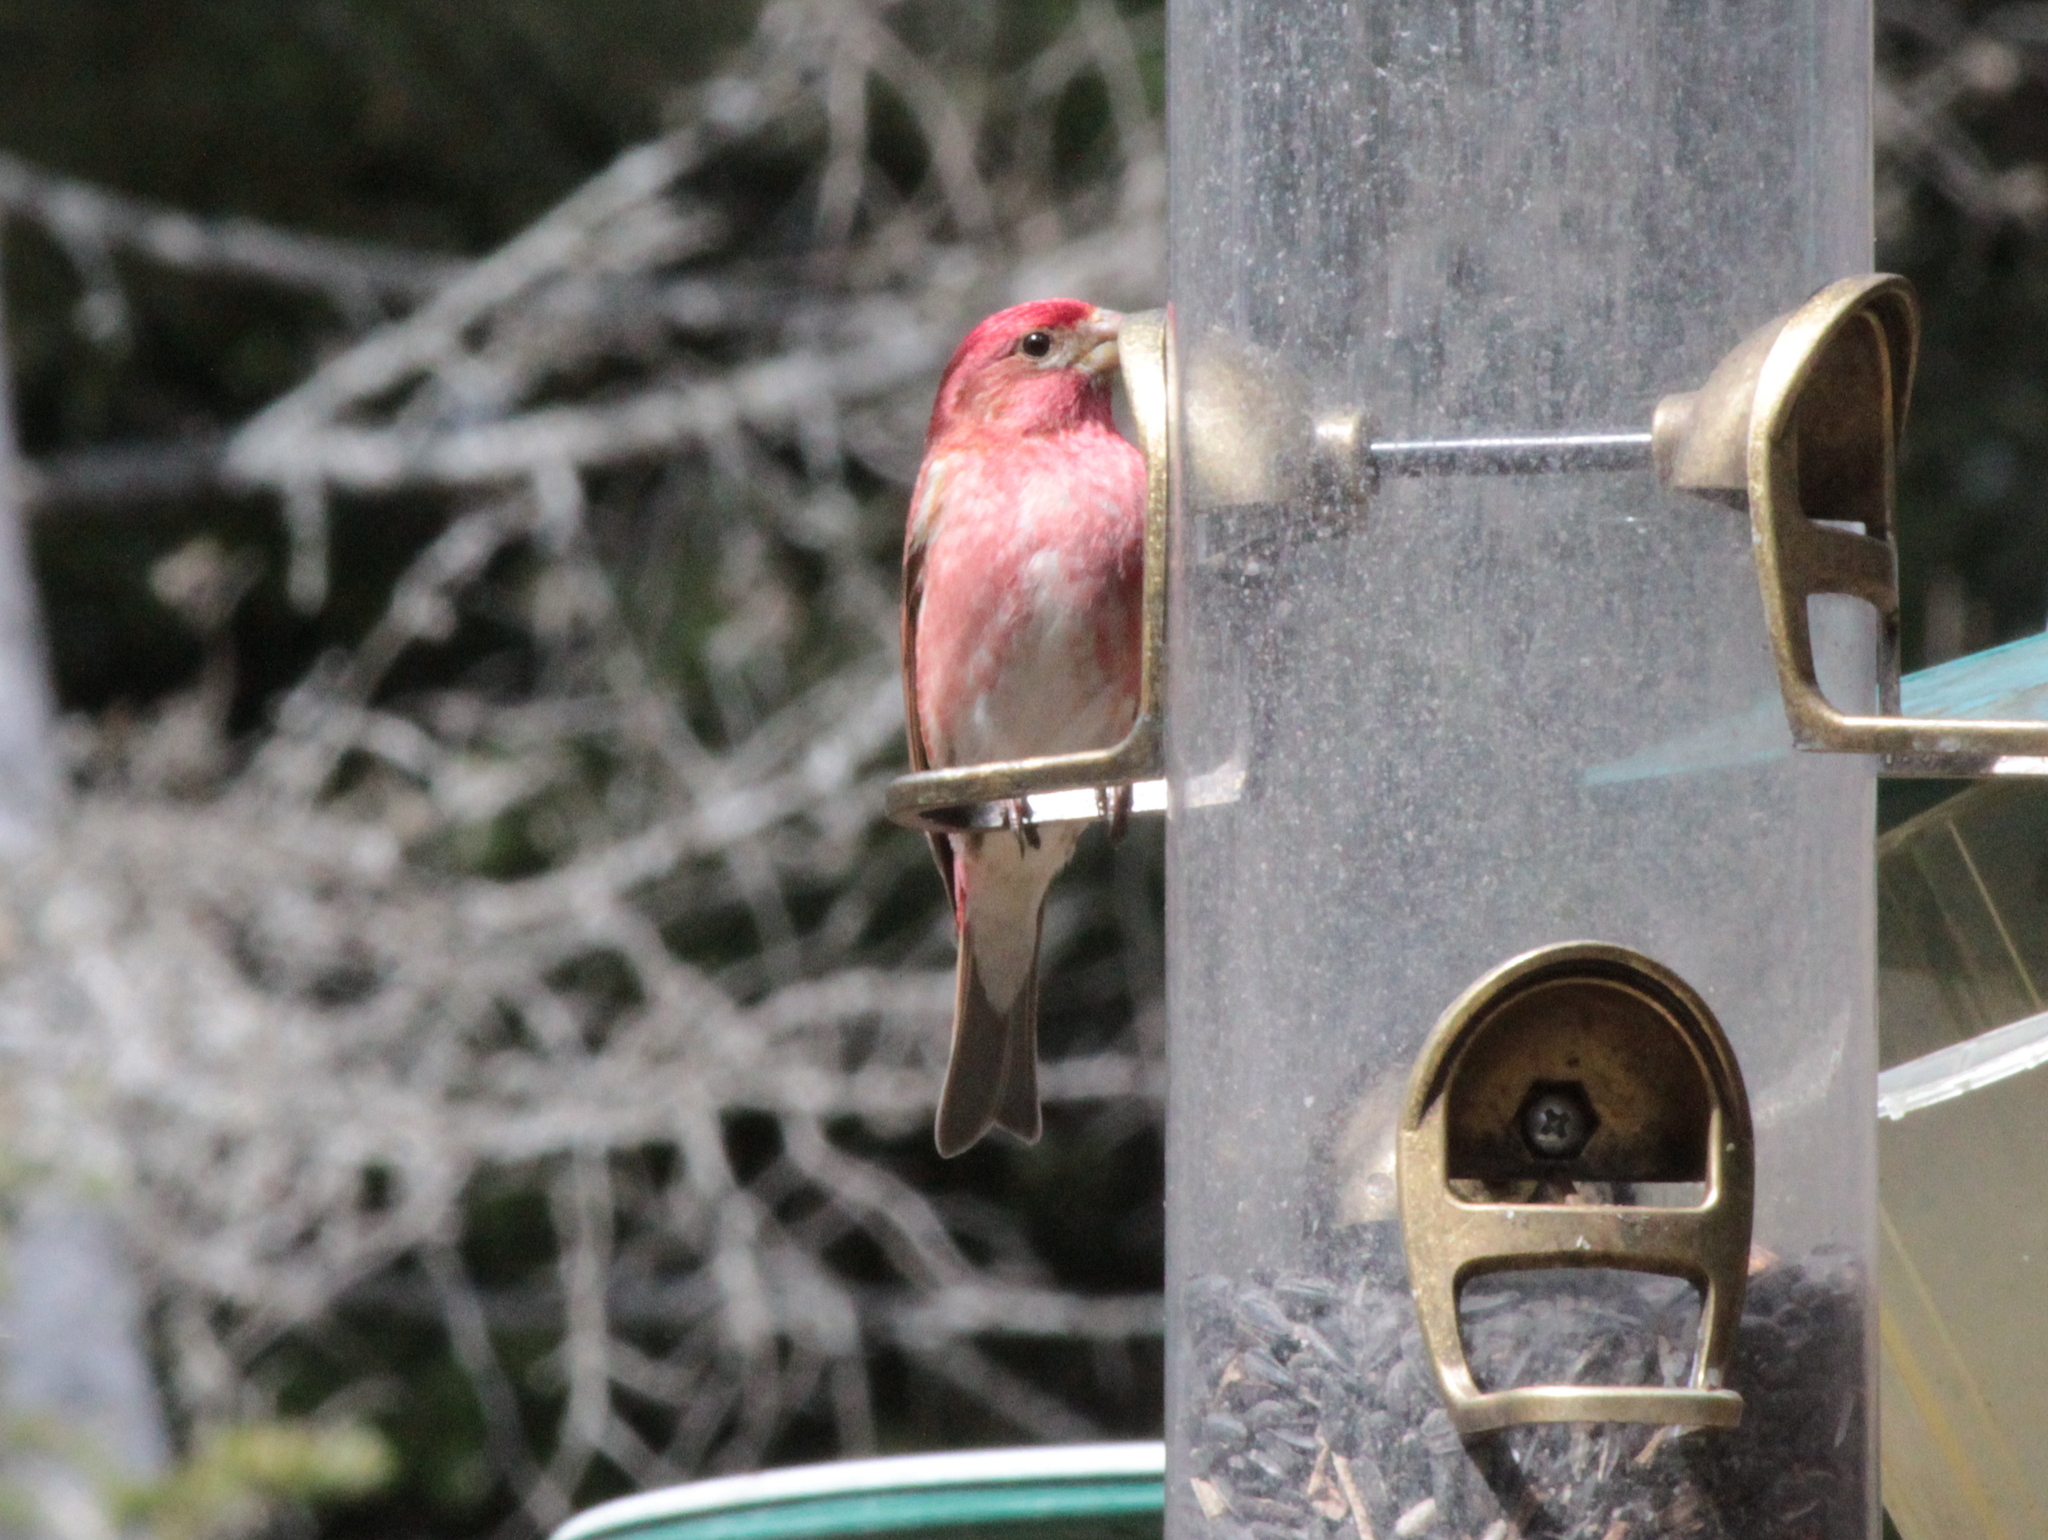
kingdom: Animalia
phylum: Chordata
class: Aves
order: Passeriformes
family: Fringillidae
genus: Haemorhous
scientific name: Haemorhous purpureus
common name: Purple finch
